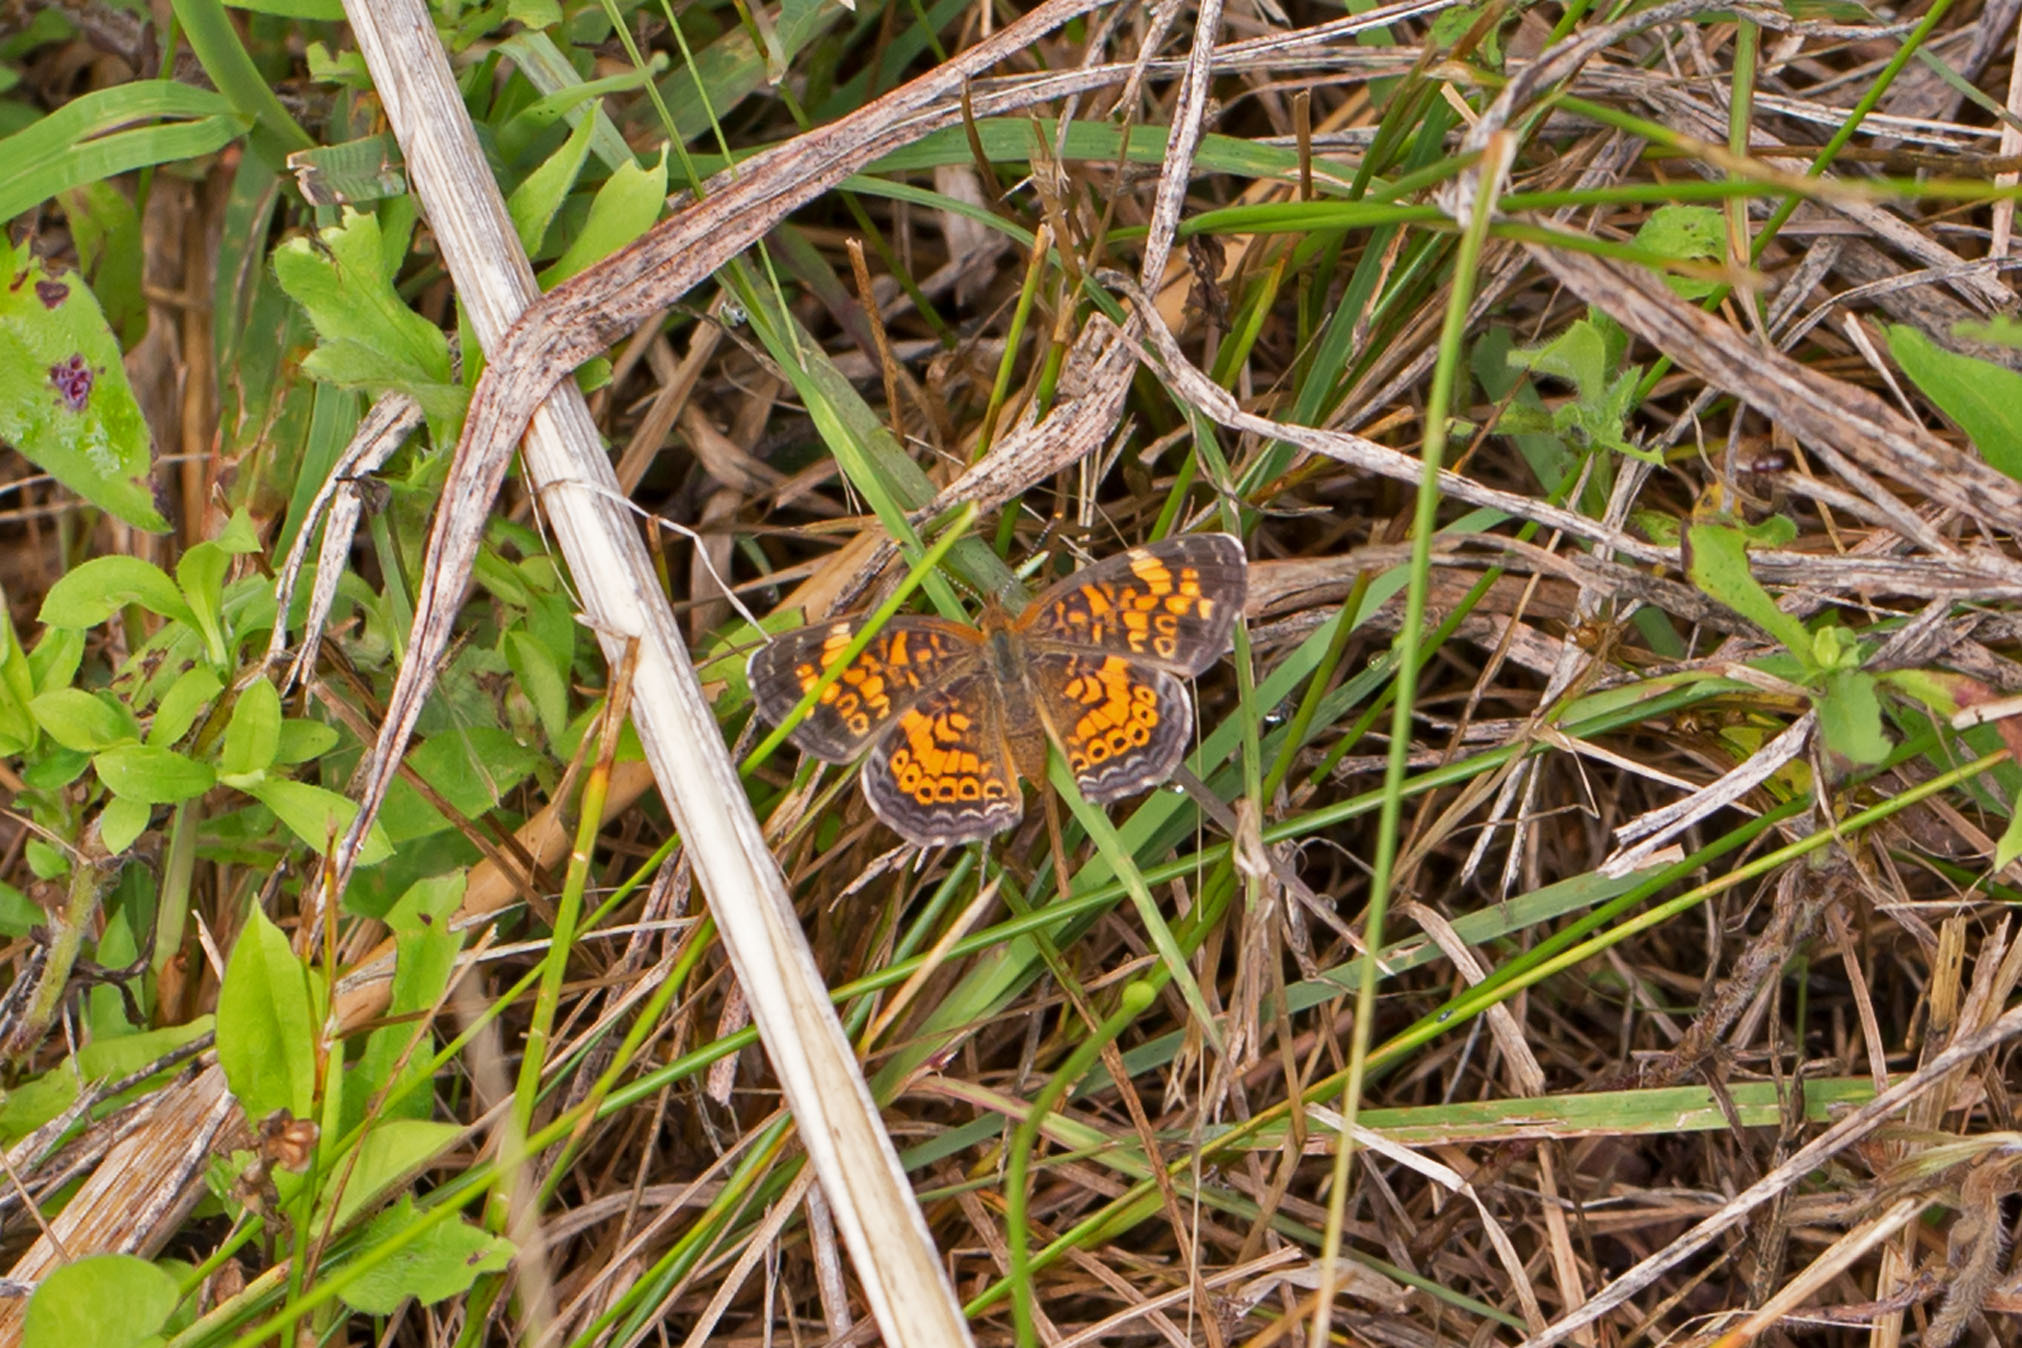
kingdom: Animalia
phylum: Arthropoda
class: Insecta
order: Lepidoptera
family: Nymphalidae
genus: Phyciodes
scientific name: Phyciodes tharos
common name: Pearl crescent
